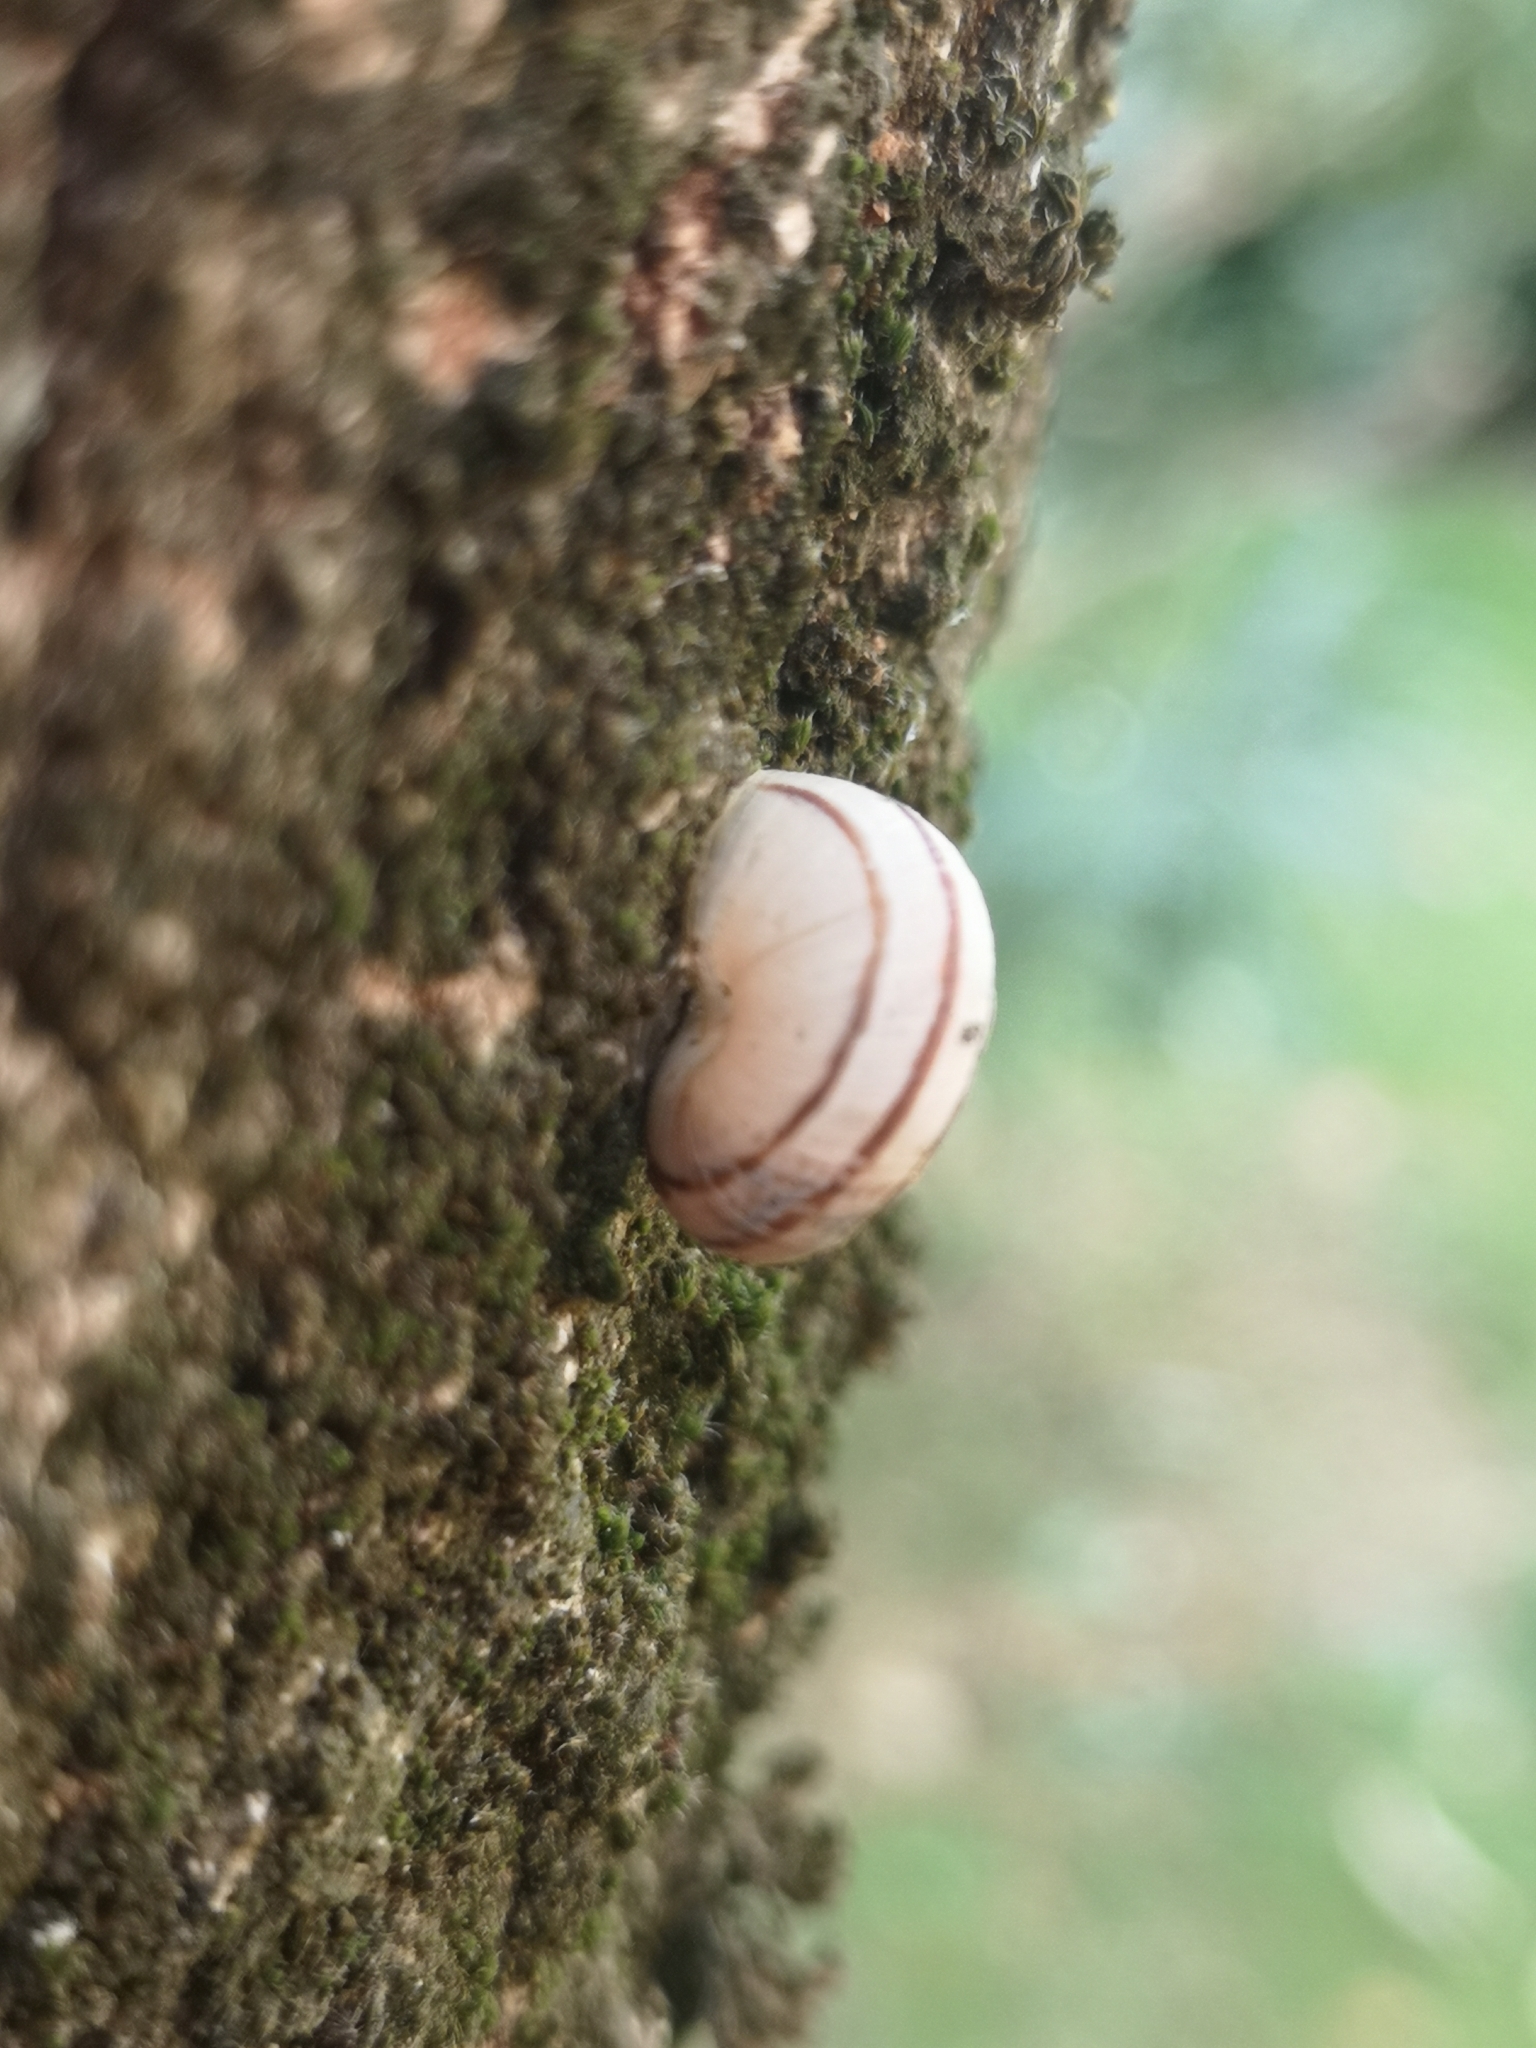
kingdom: Animalia
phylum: Mollusca
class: Gastropoda
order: Stylommatophora
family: Helicidae
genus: Eobania
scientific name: Eobania vermiculata
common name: Chocolateband snail
